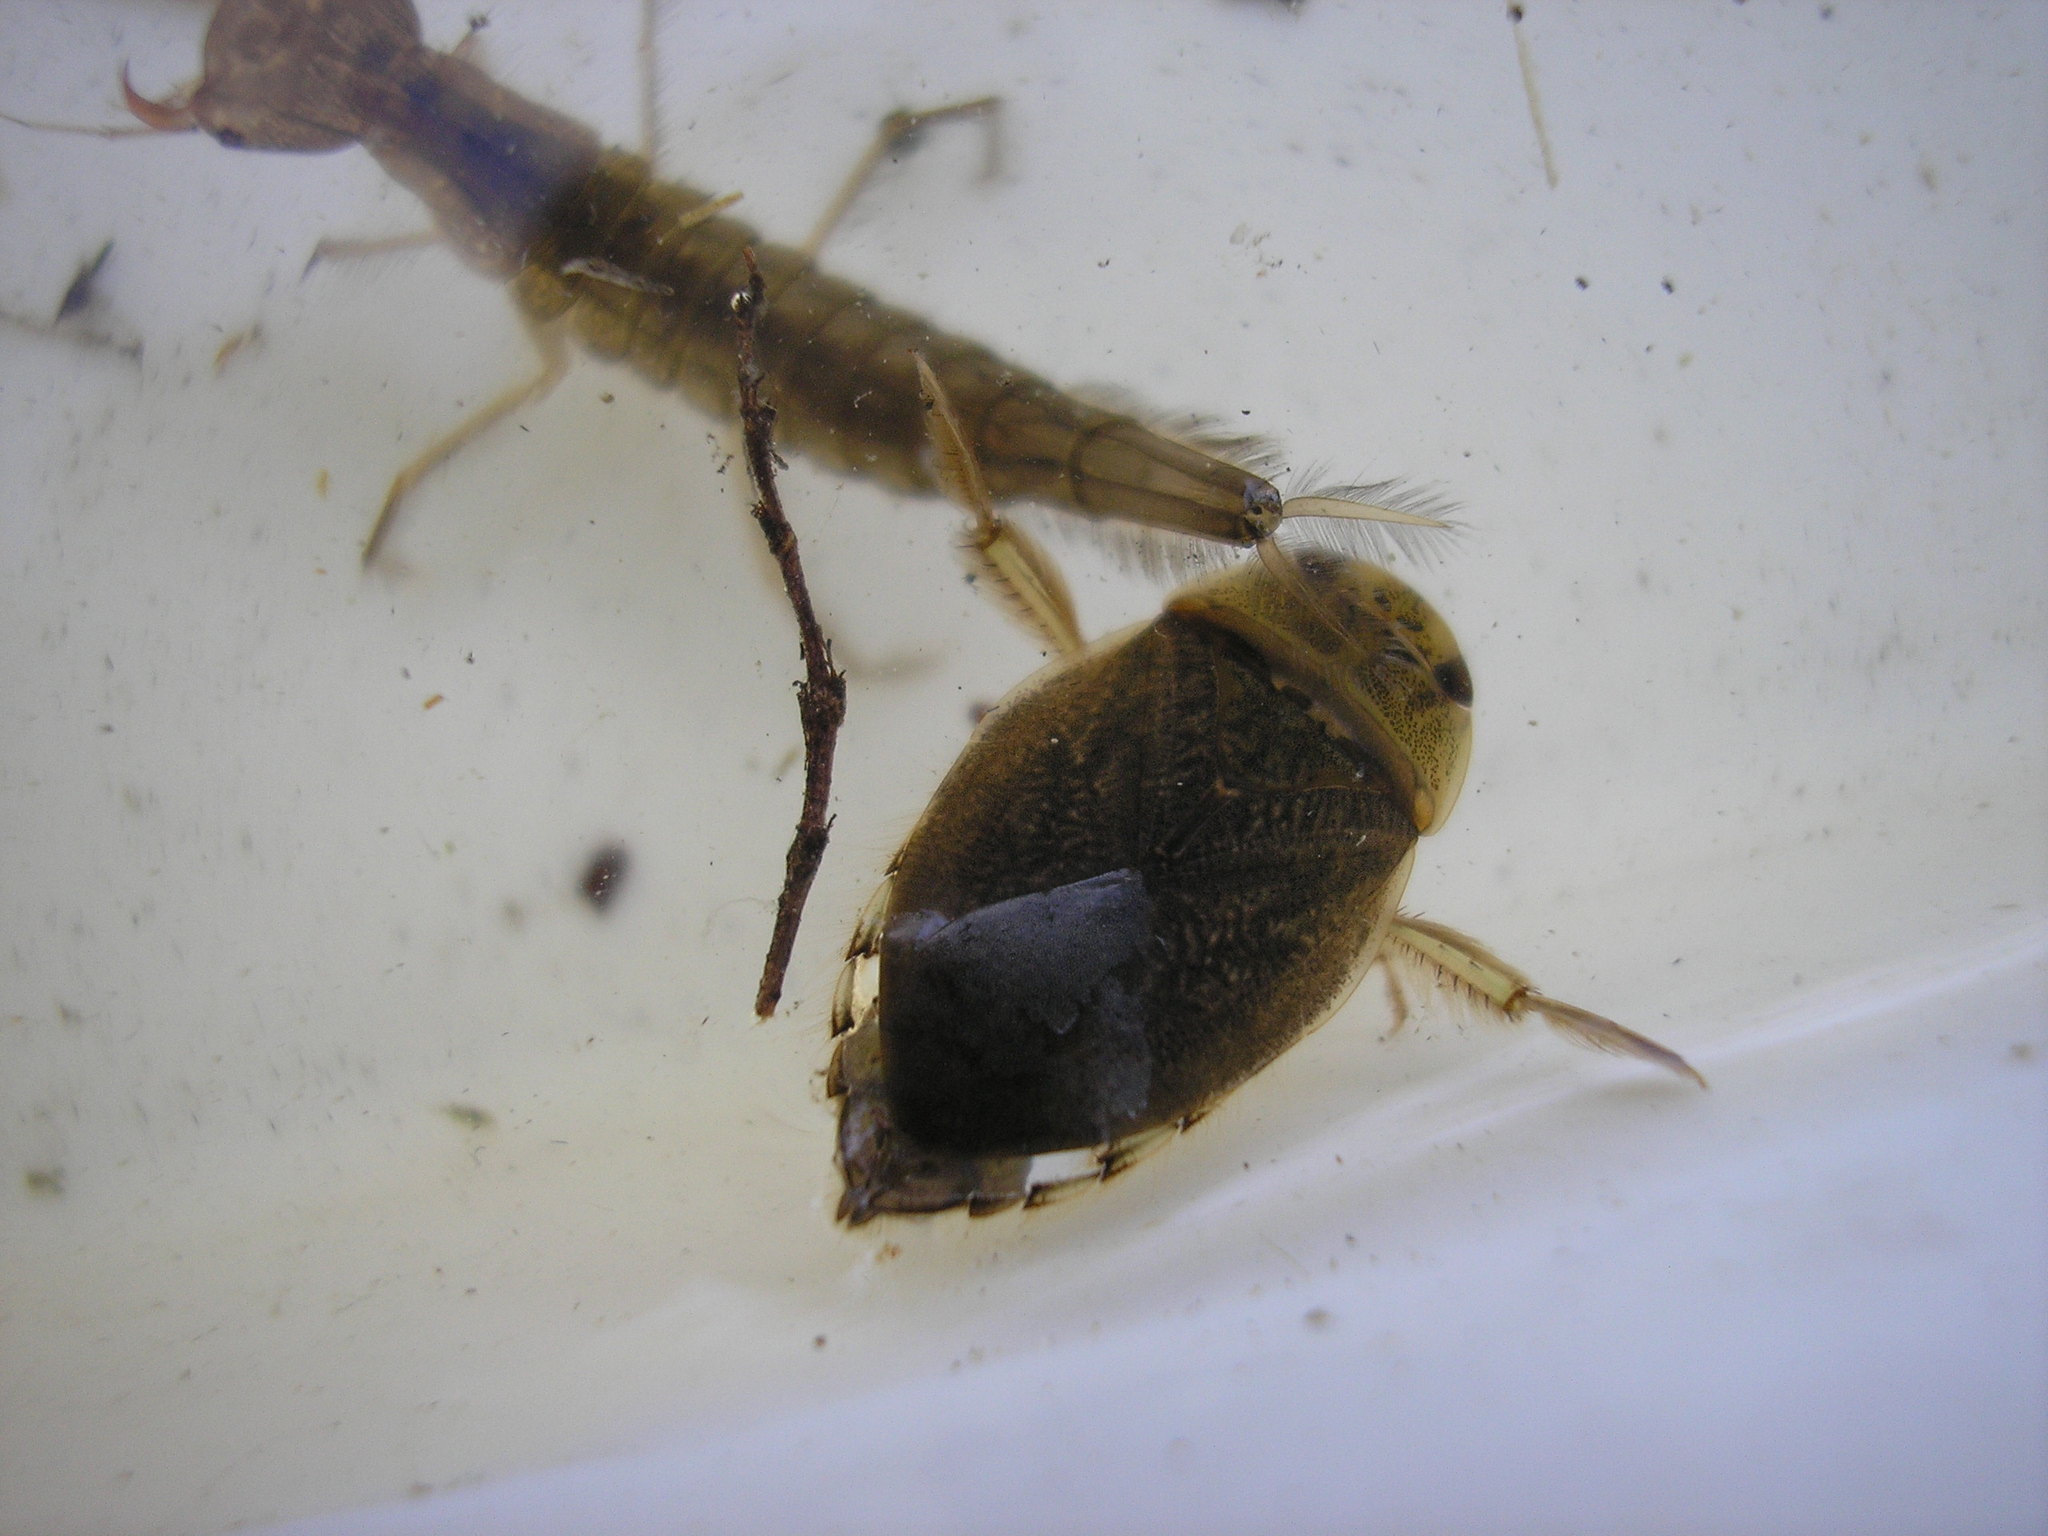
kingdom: Animalia
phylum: Arthropoda
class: Insecta
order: Hemiptera
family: Naucoridae
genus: Ilyocoris
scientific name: Ilyocoris cimicoides
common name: Saucer bugs
